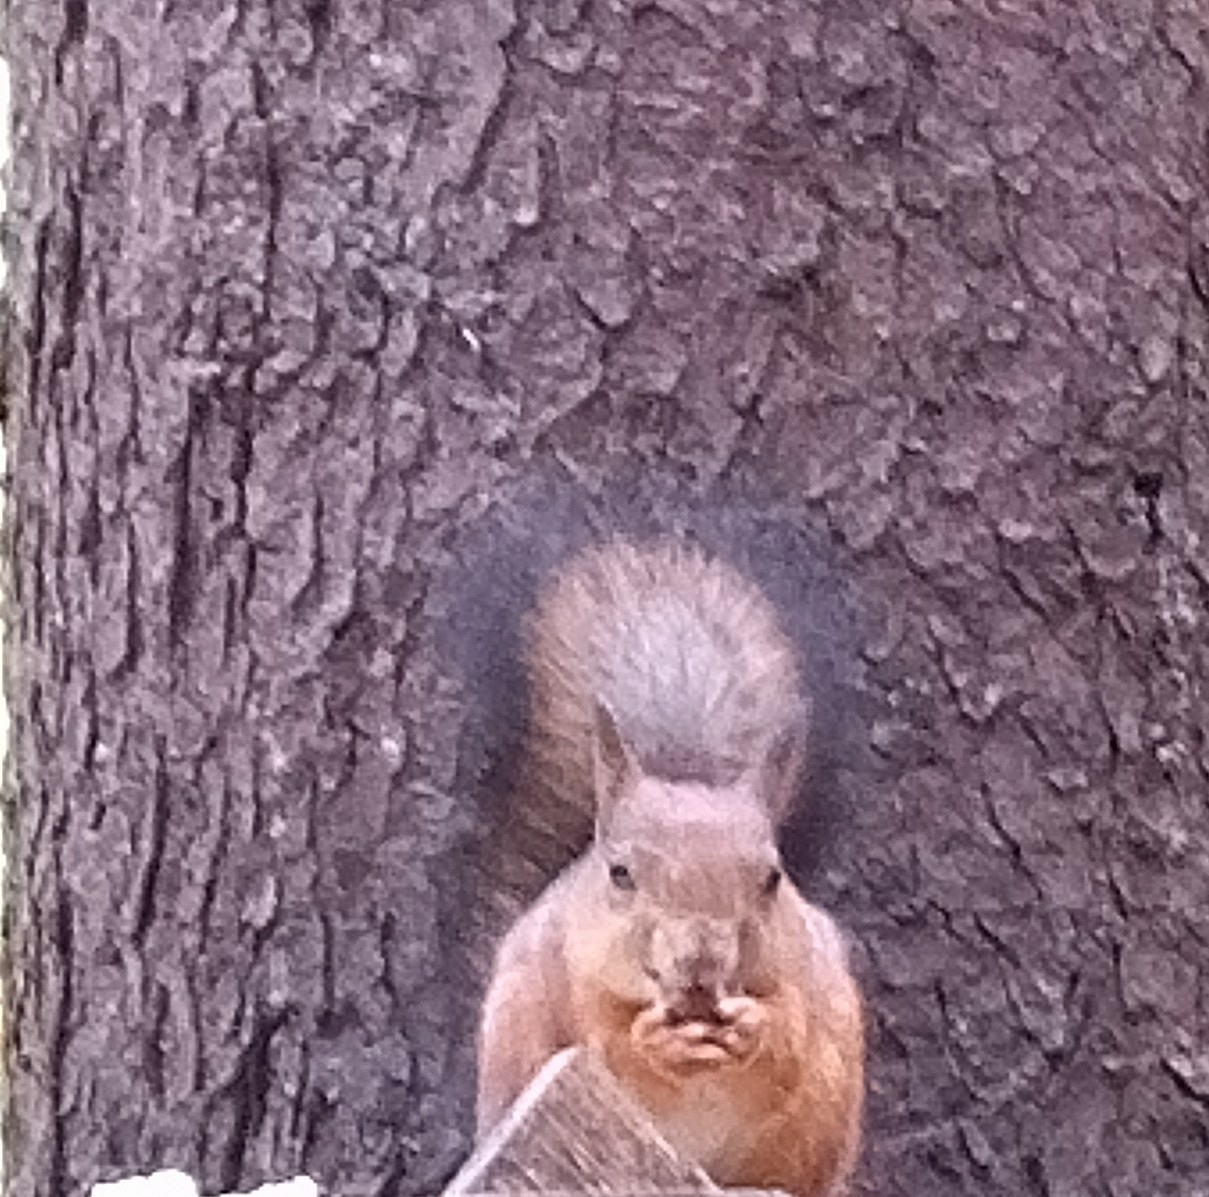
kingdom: Animalia
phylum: Chordata
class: Mammalia
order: Rodentia
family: Sciuridae
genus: Sciurus
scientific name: Sciurus vulgaris
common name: Eurasian red squirrel
